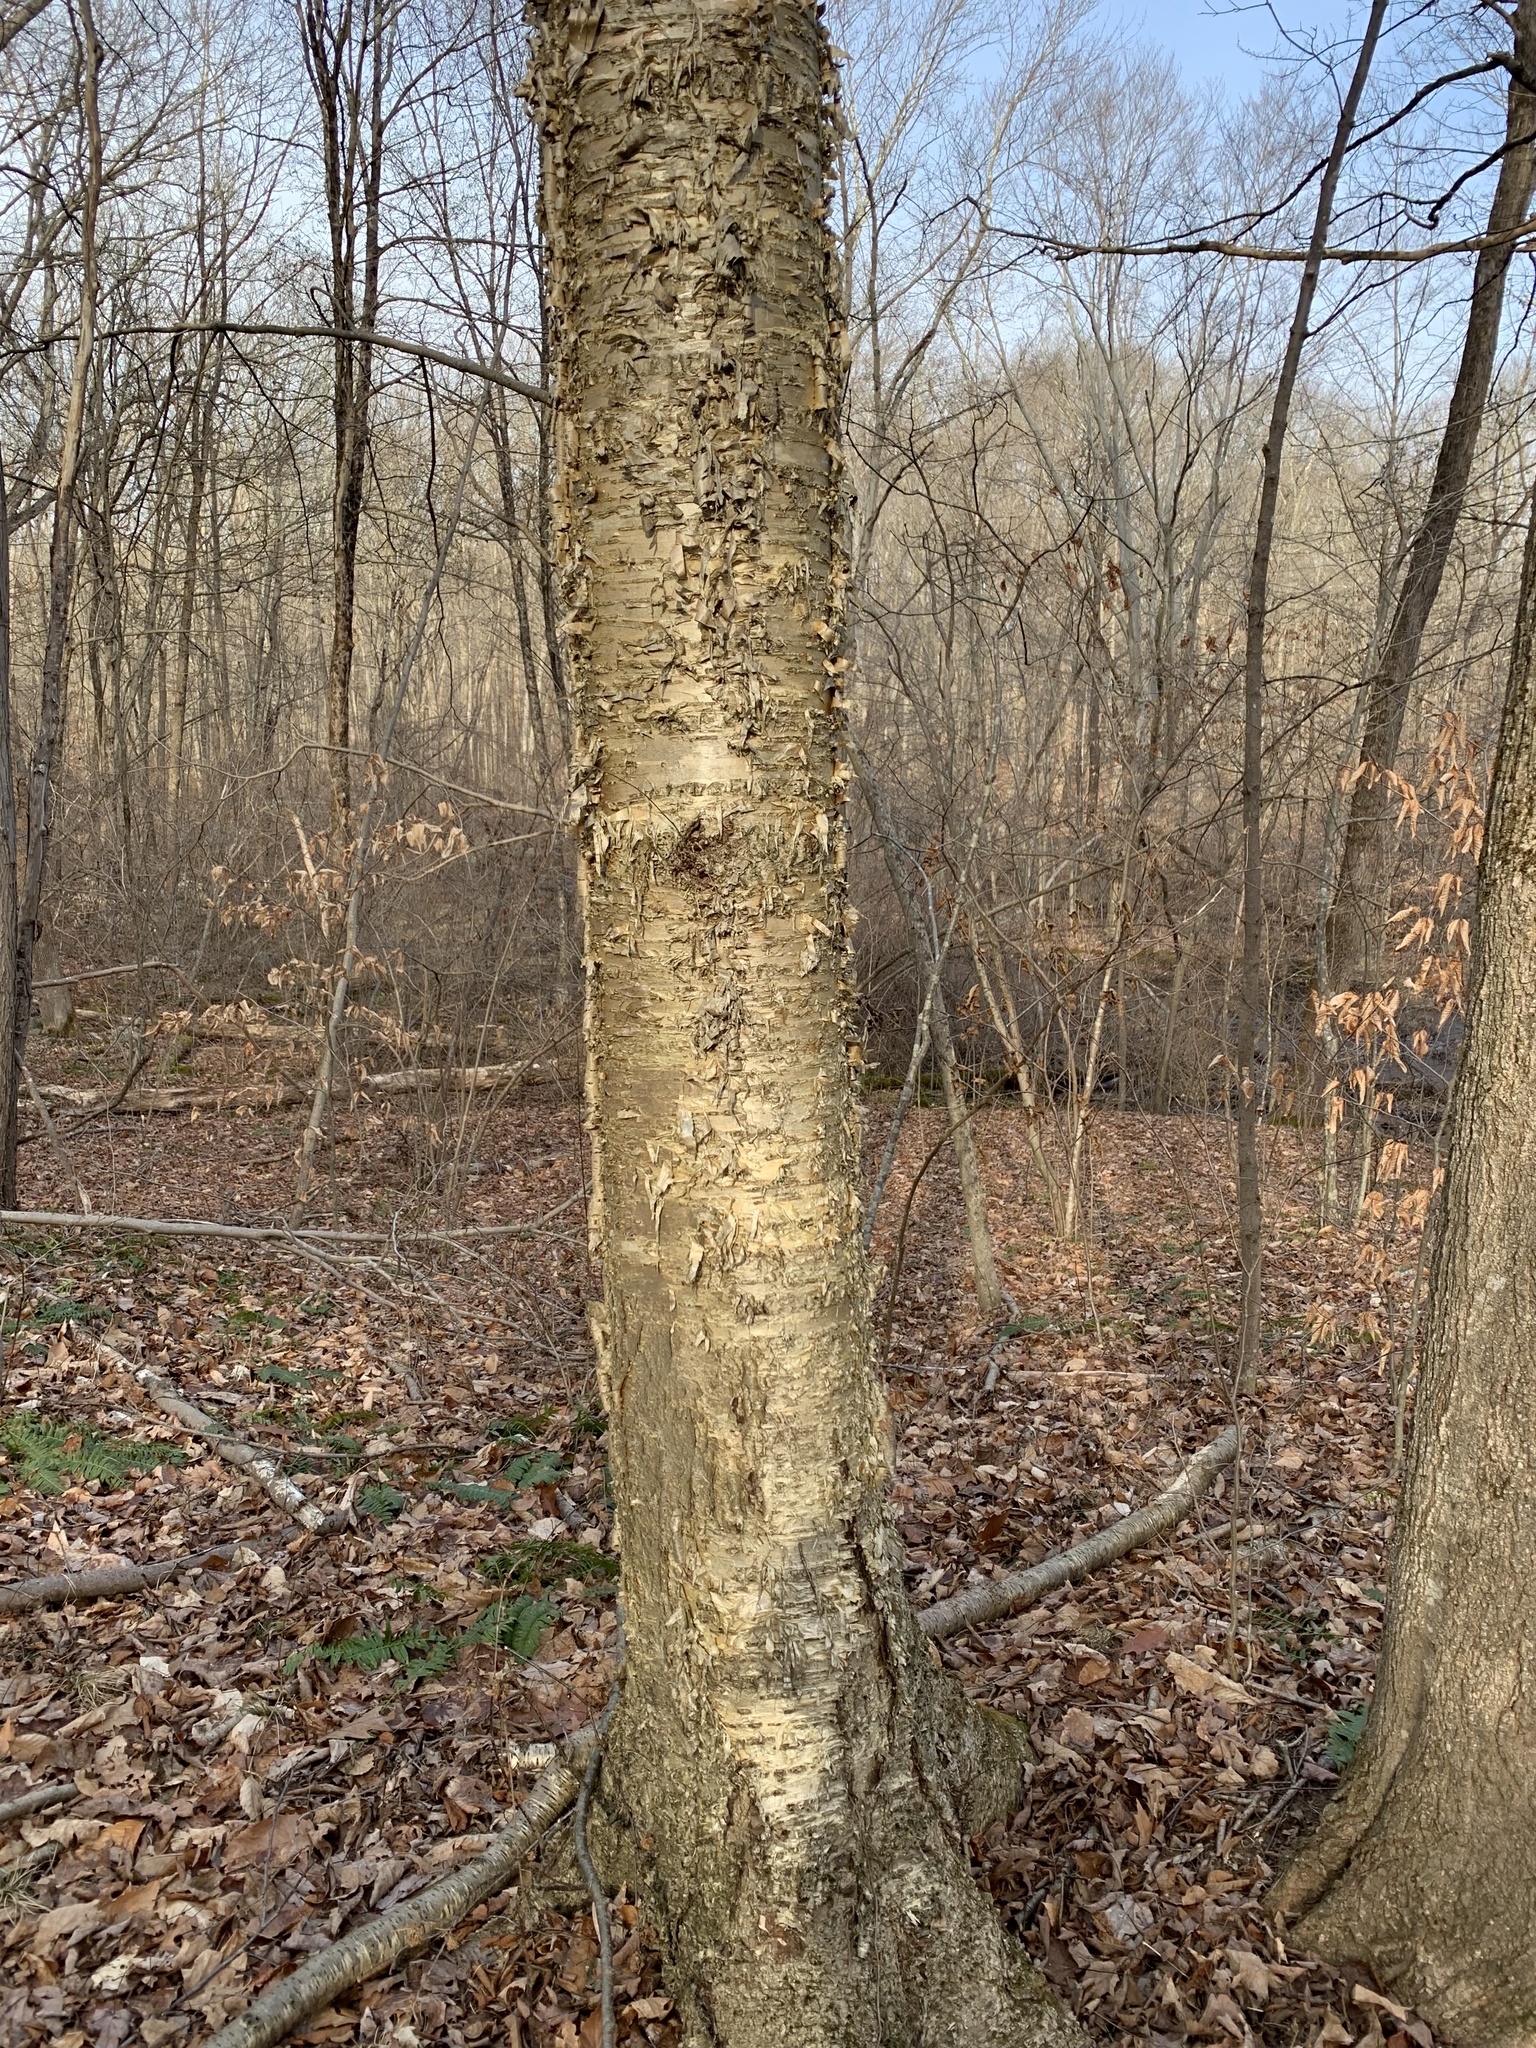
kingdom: Plantae
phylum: Tracheophyta
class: Magnoliopsida
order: Fagales
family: Betulaceae
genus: Betula
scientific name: Betula alleghaniensis
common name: Yellow birch
